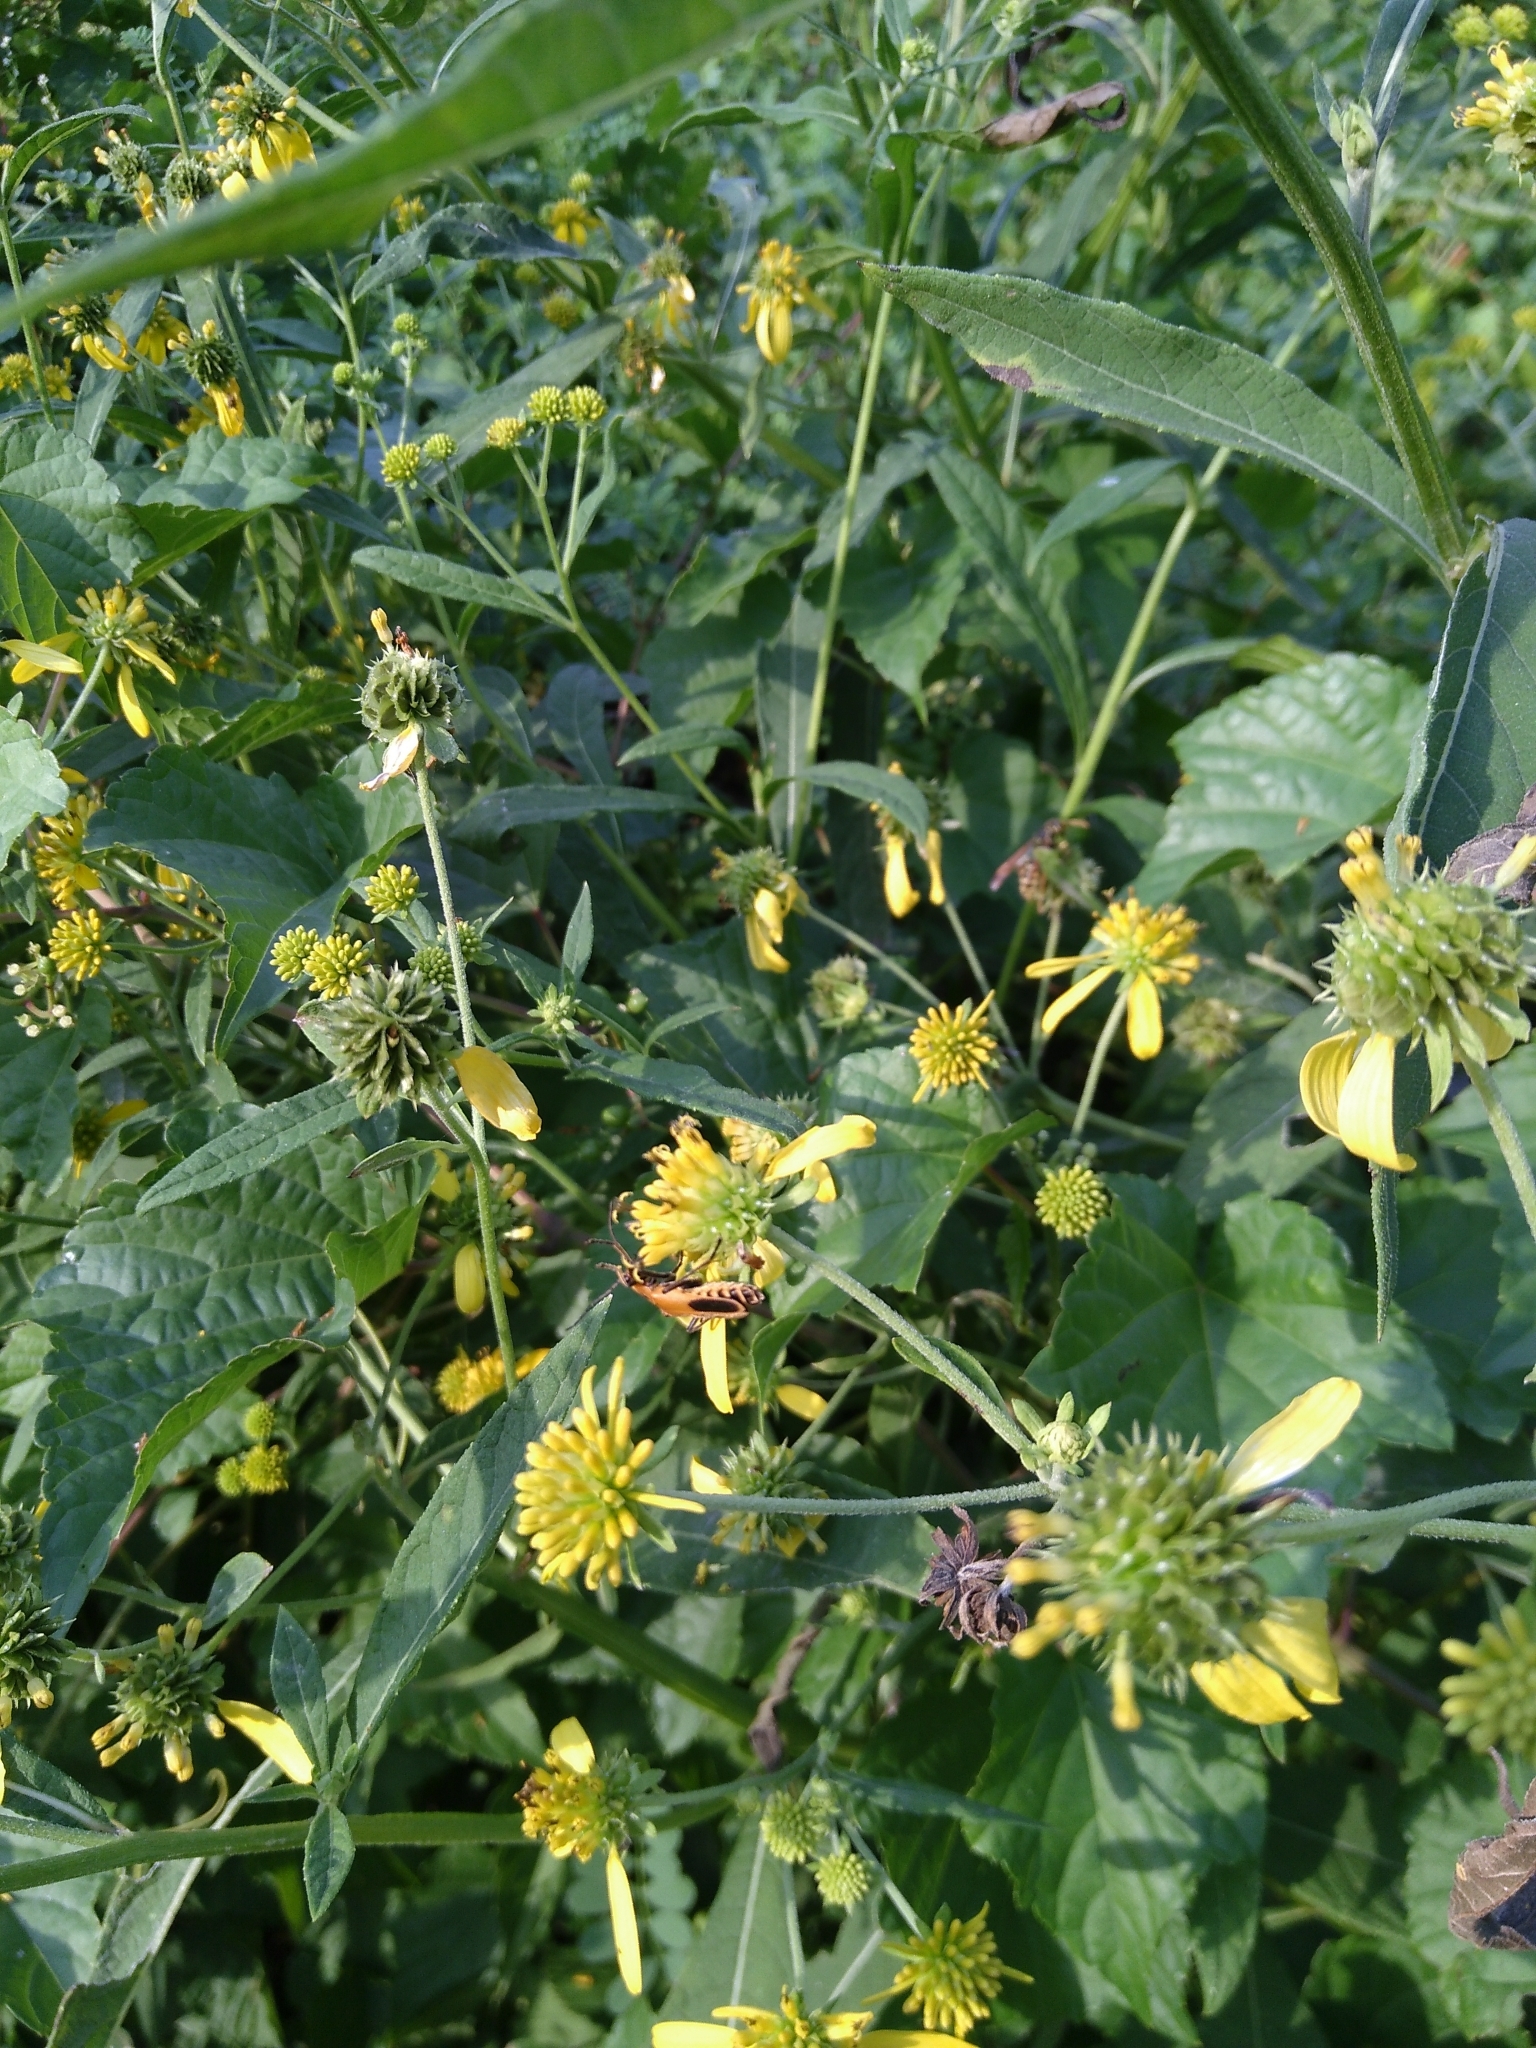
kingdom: Animalia
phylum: Arthropoda
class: Insecta
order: Coleoptera
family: Cantharidae
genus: Chauliognathus
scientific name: Chauliognathus pensylvanicus
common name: Goldenrod soldier beetle
